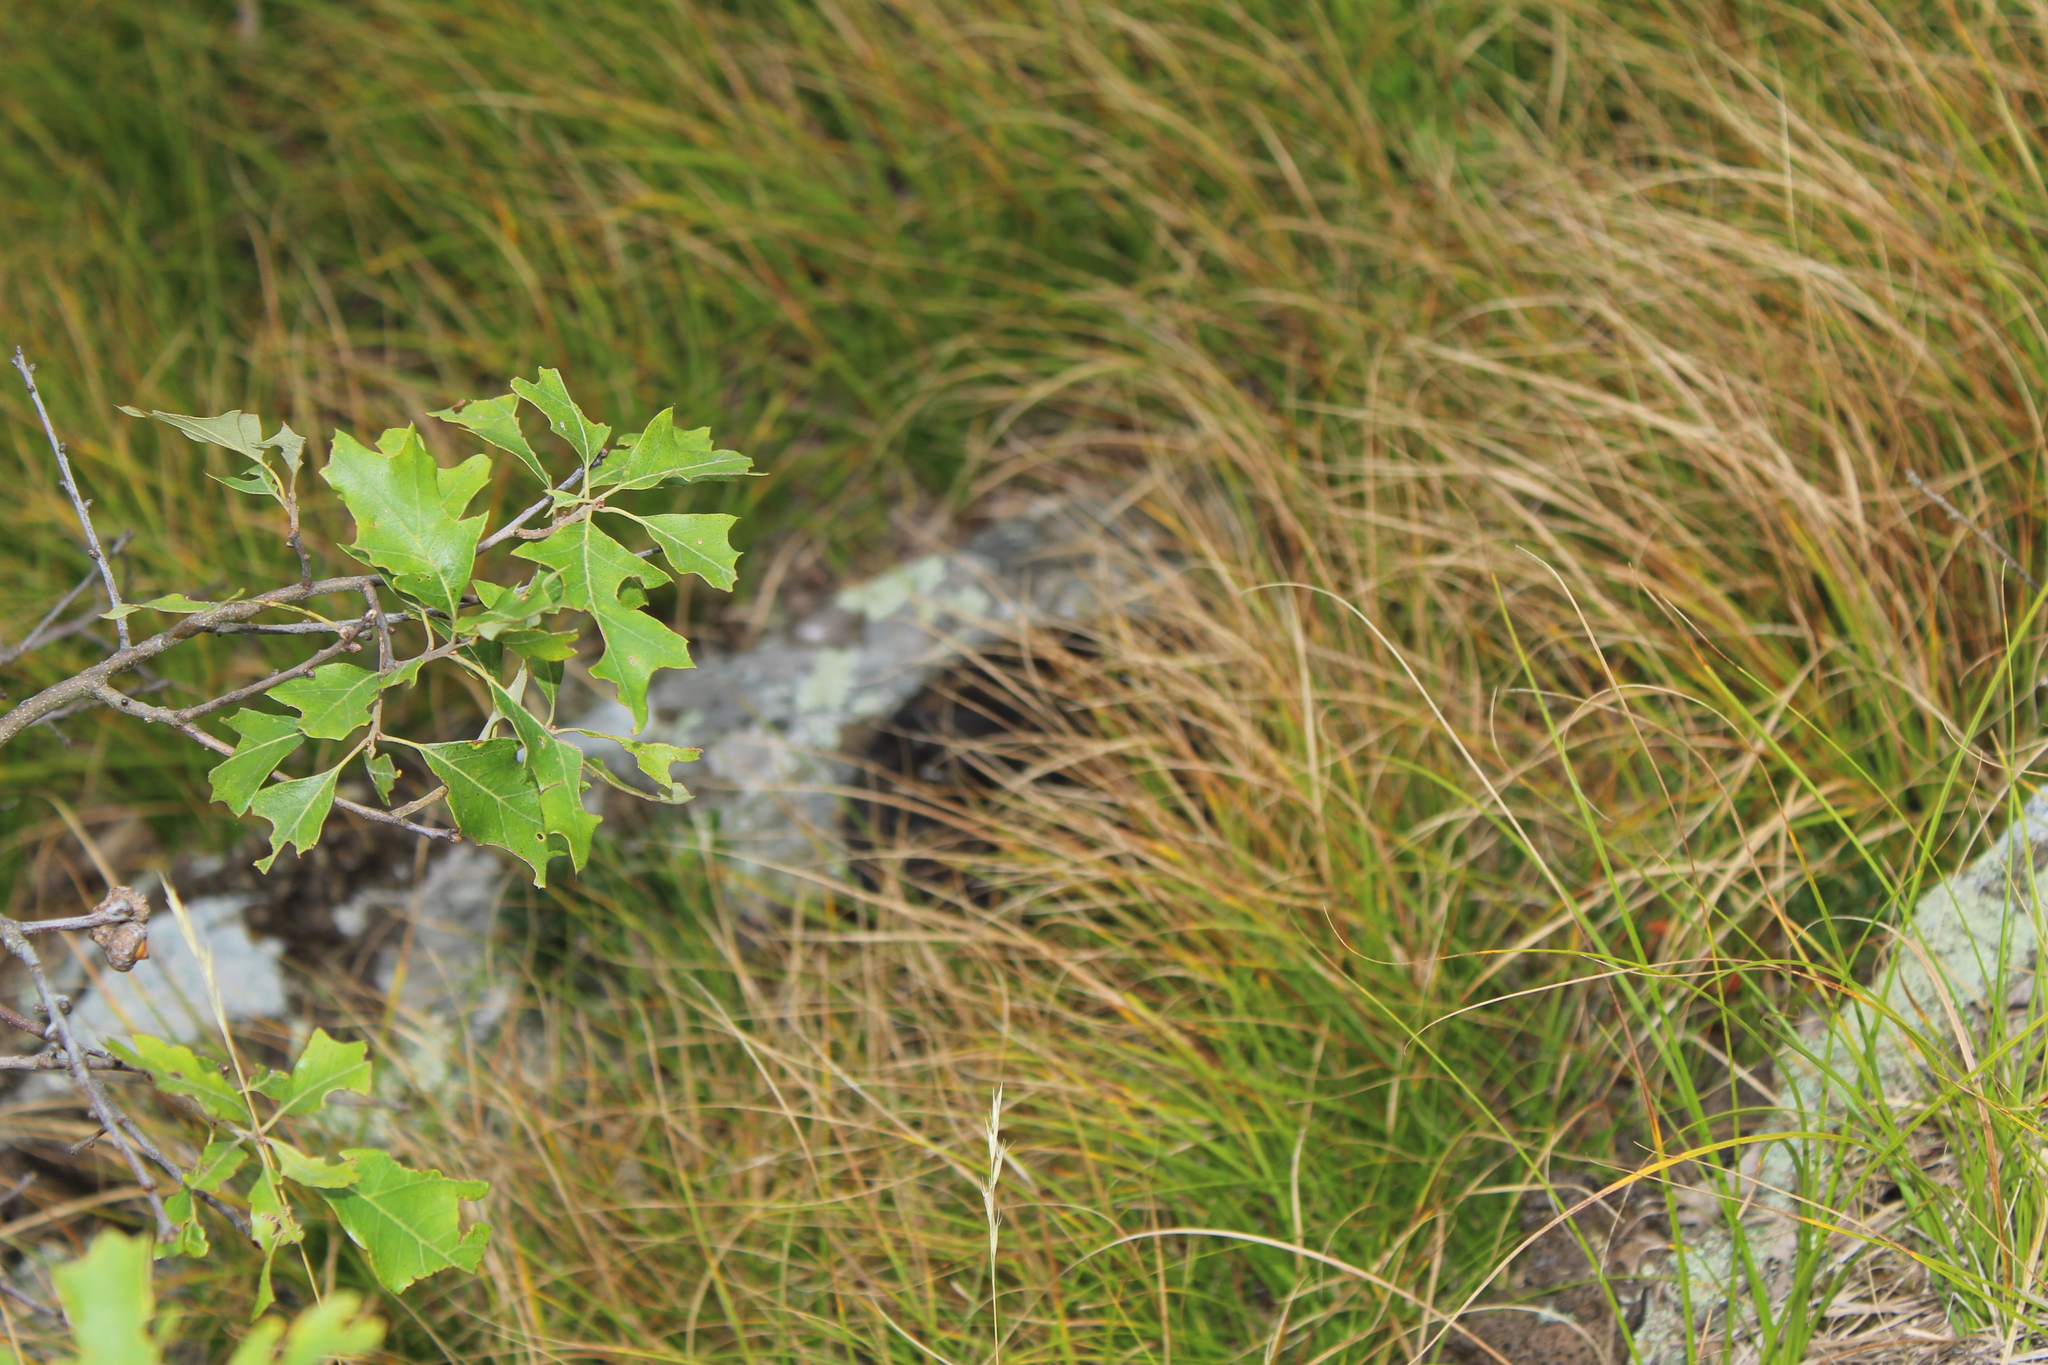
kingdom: Plantae
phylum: Tracheophyta
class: Magnoliopsida
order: Fagales
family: Fagaceae
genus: Quercus
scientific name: Quercus ilicifolia
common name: Bear oak
